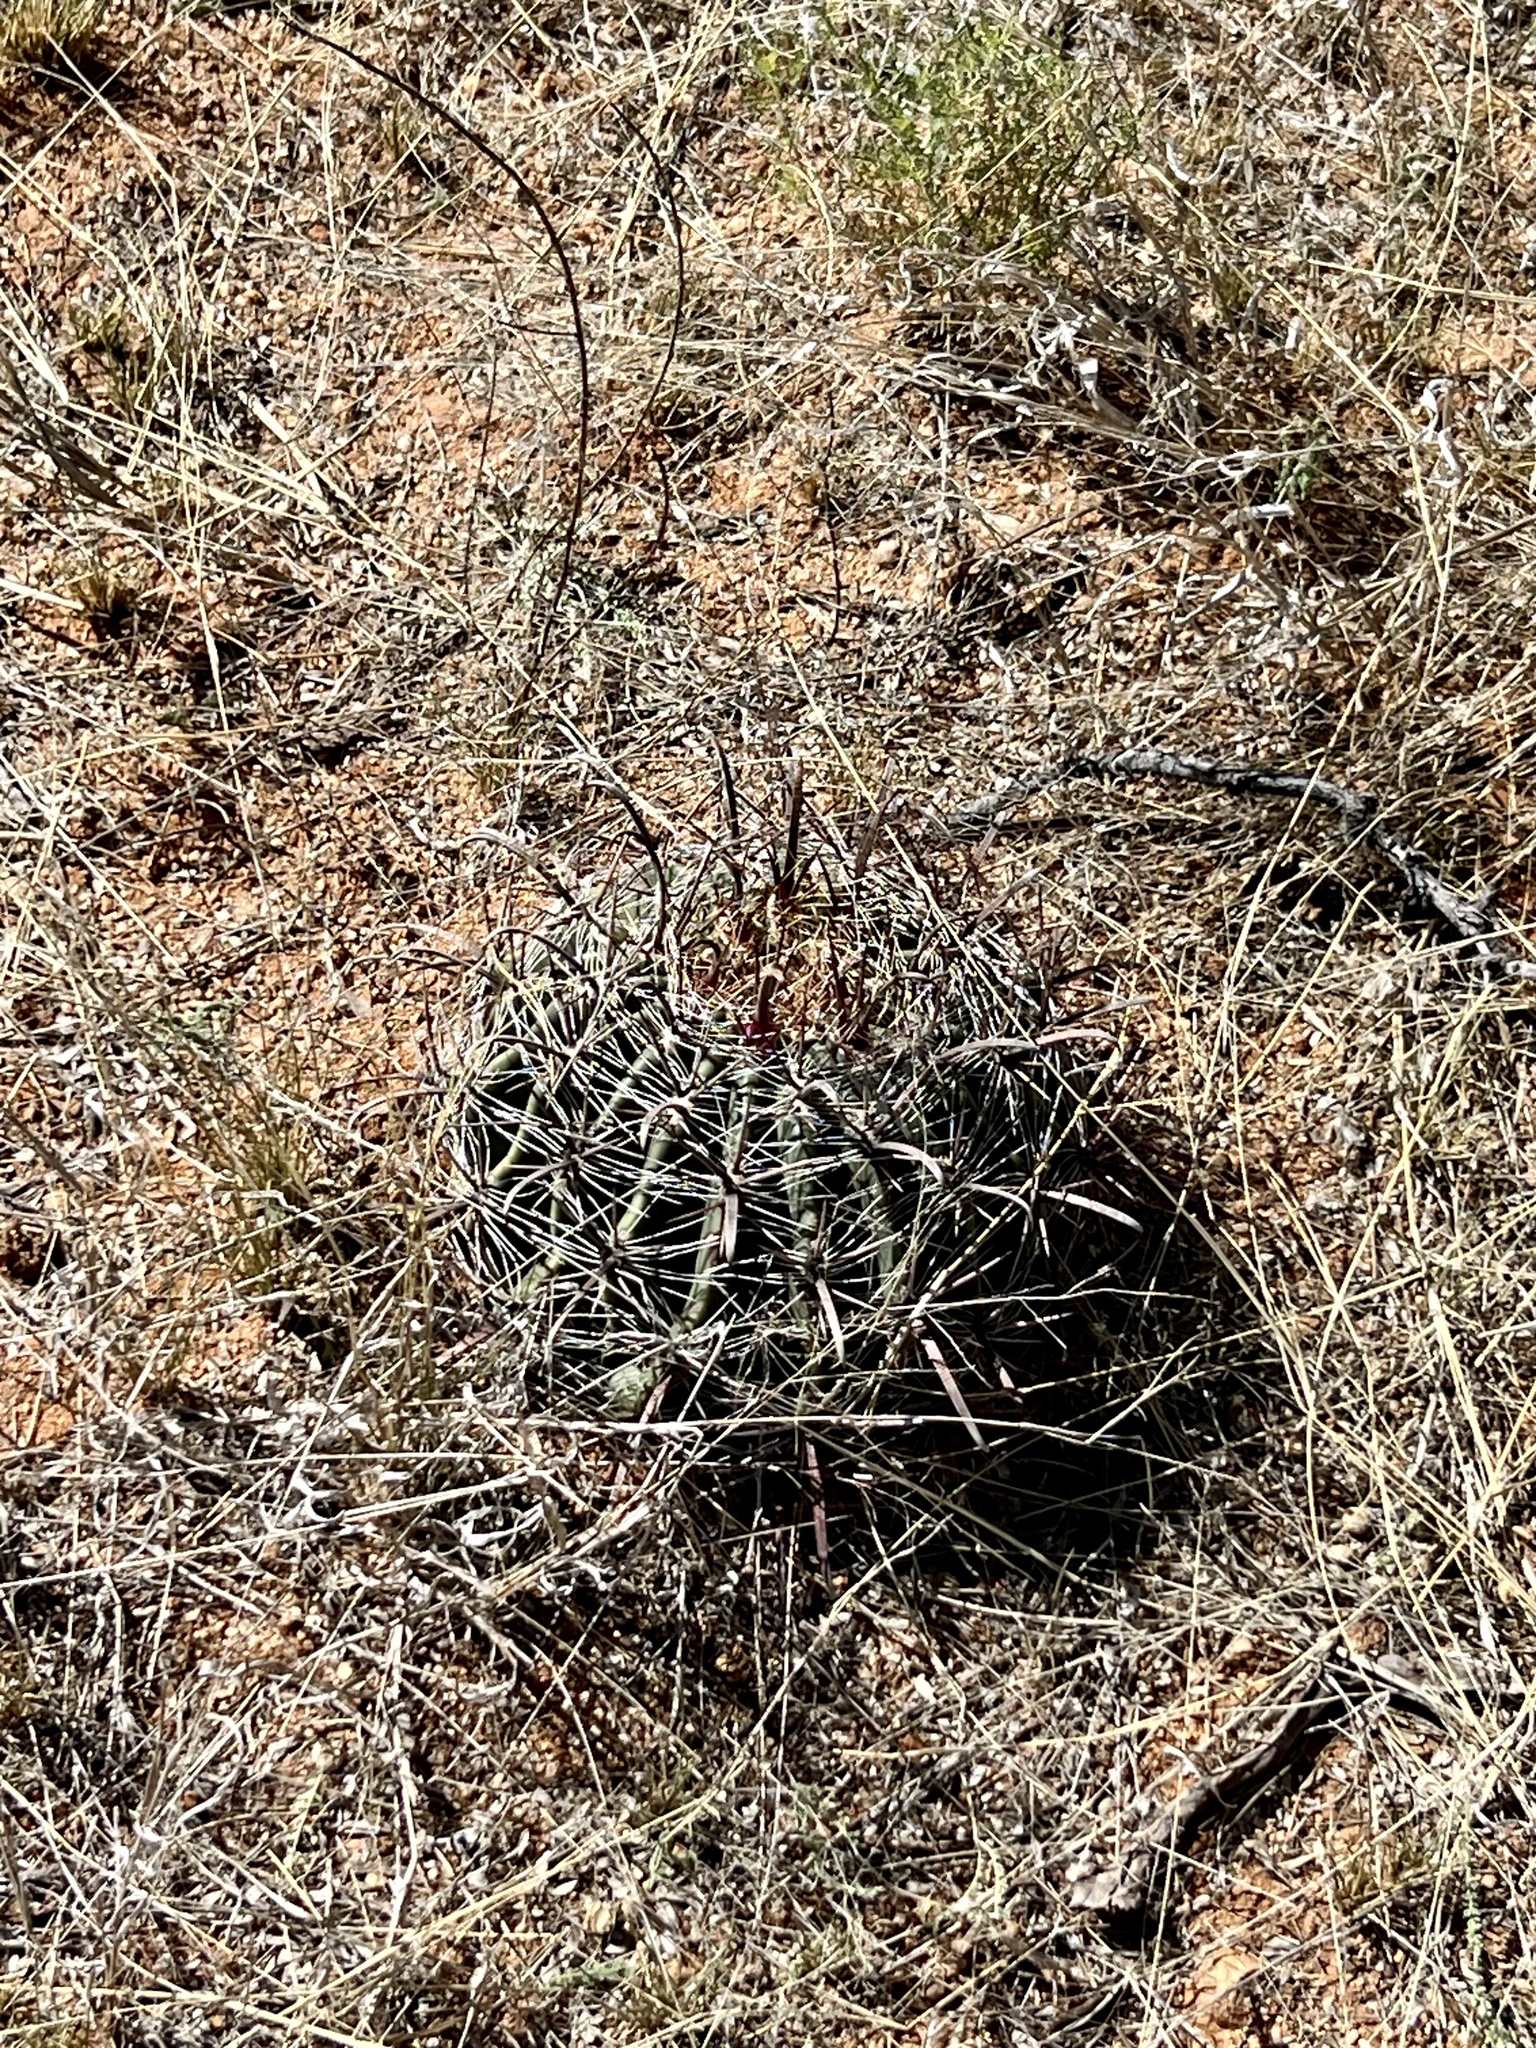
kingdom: Plantae
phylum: Tracheophyta
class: Magnoliopsida
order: Caryophyllales
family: Cactaceae
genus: Ferocactus
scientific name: Ferocactus wislizeni
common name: Candy barrel cactus
